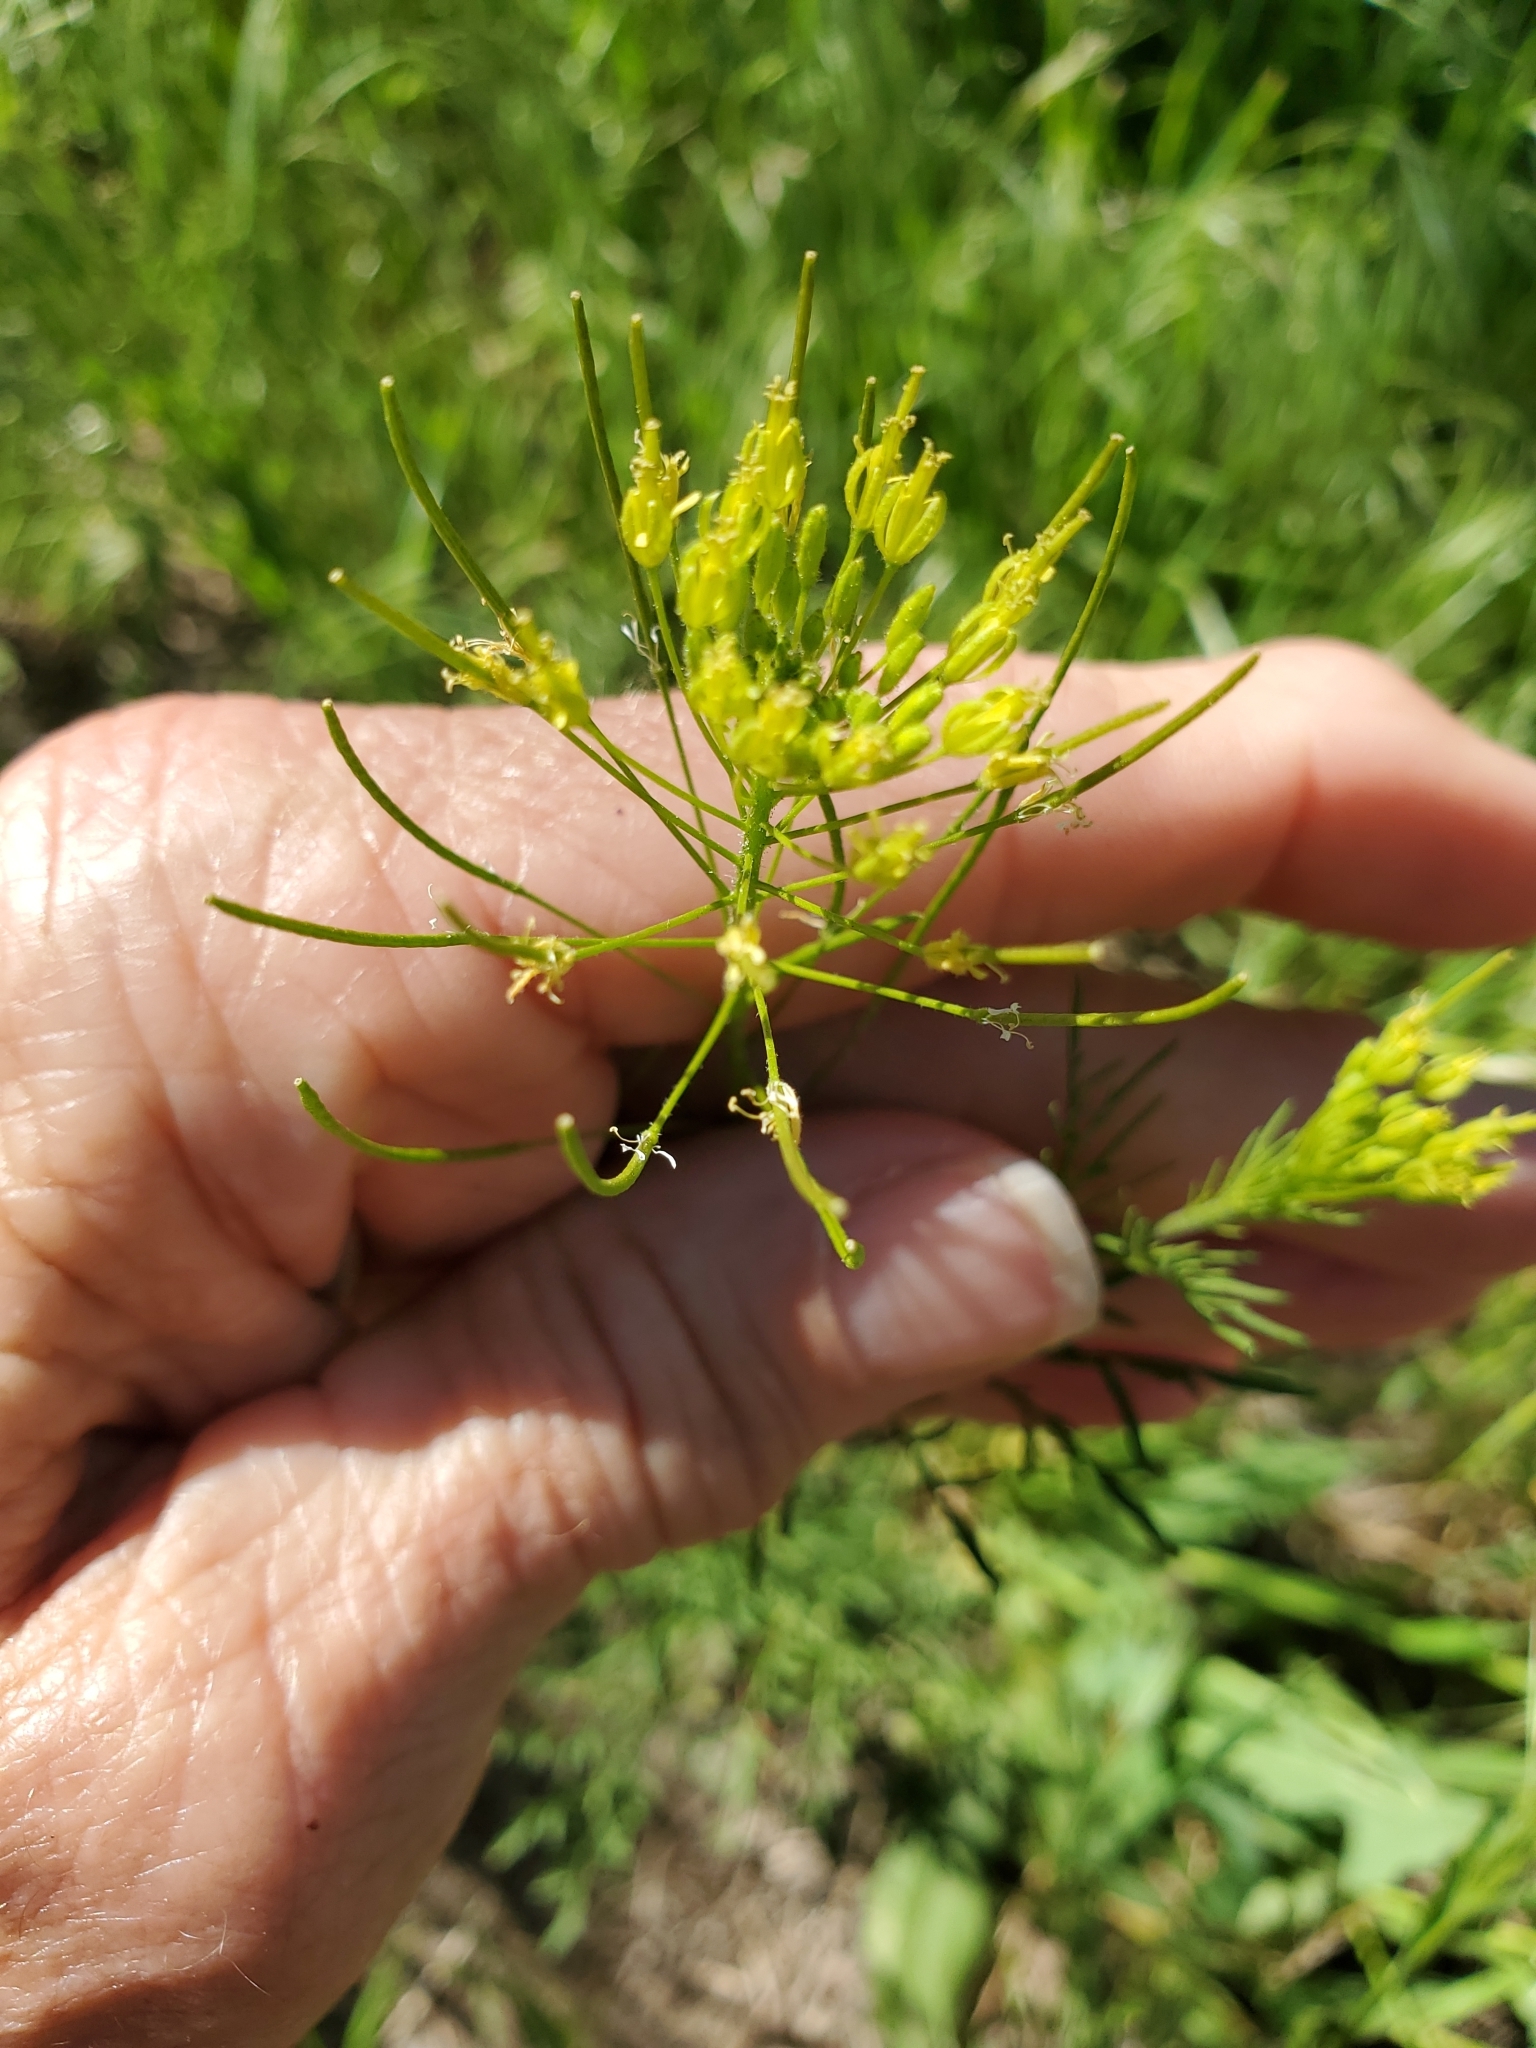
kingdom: Plantae
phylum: Tracheophyta
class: Magnoliopsida
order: Brassicales
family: Brassicaceae
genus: Descurainia
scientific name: Descurainia sophia
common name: Flixweed
